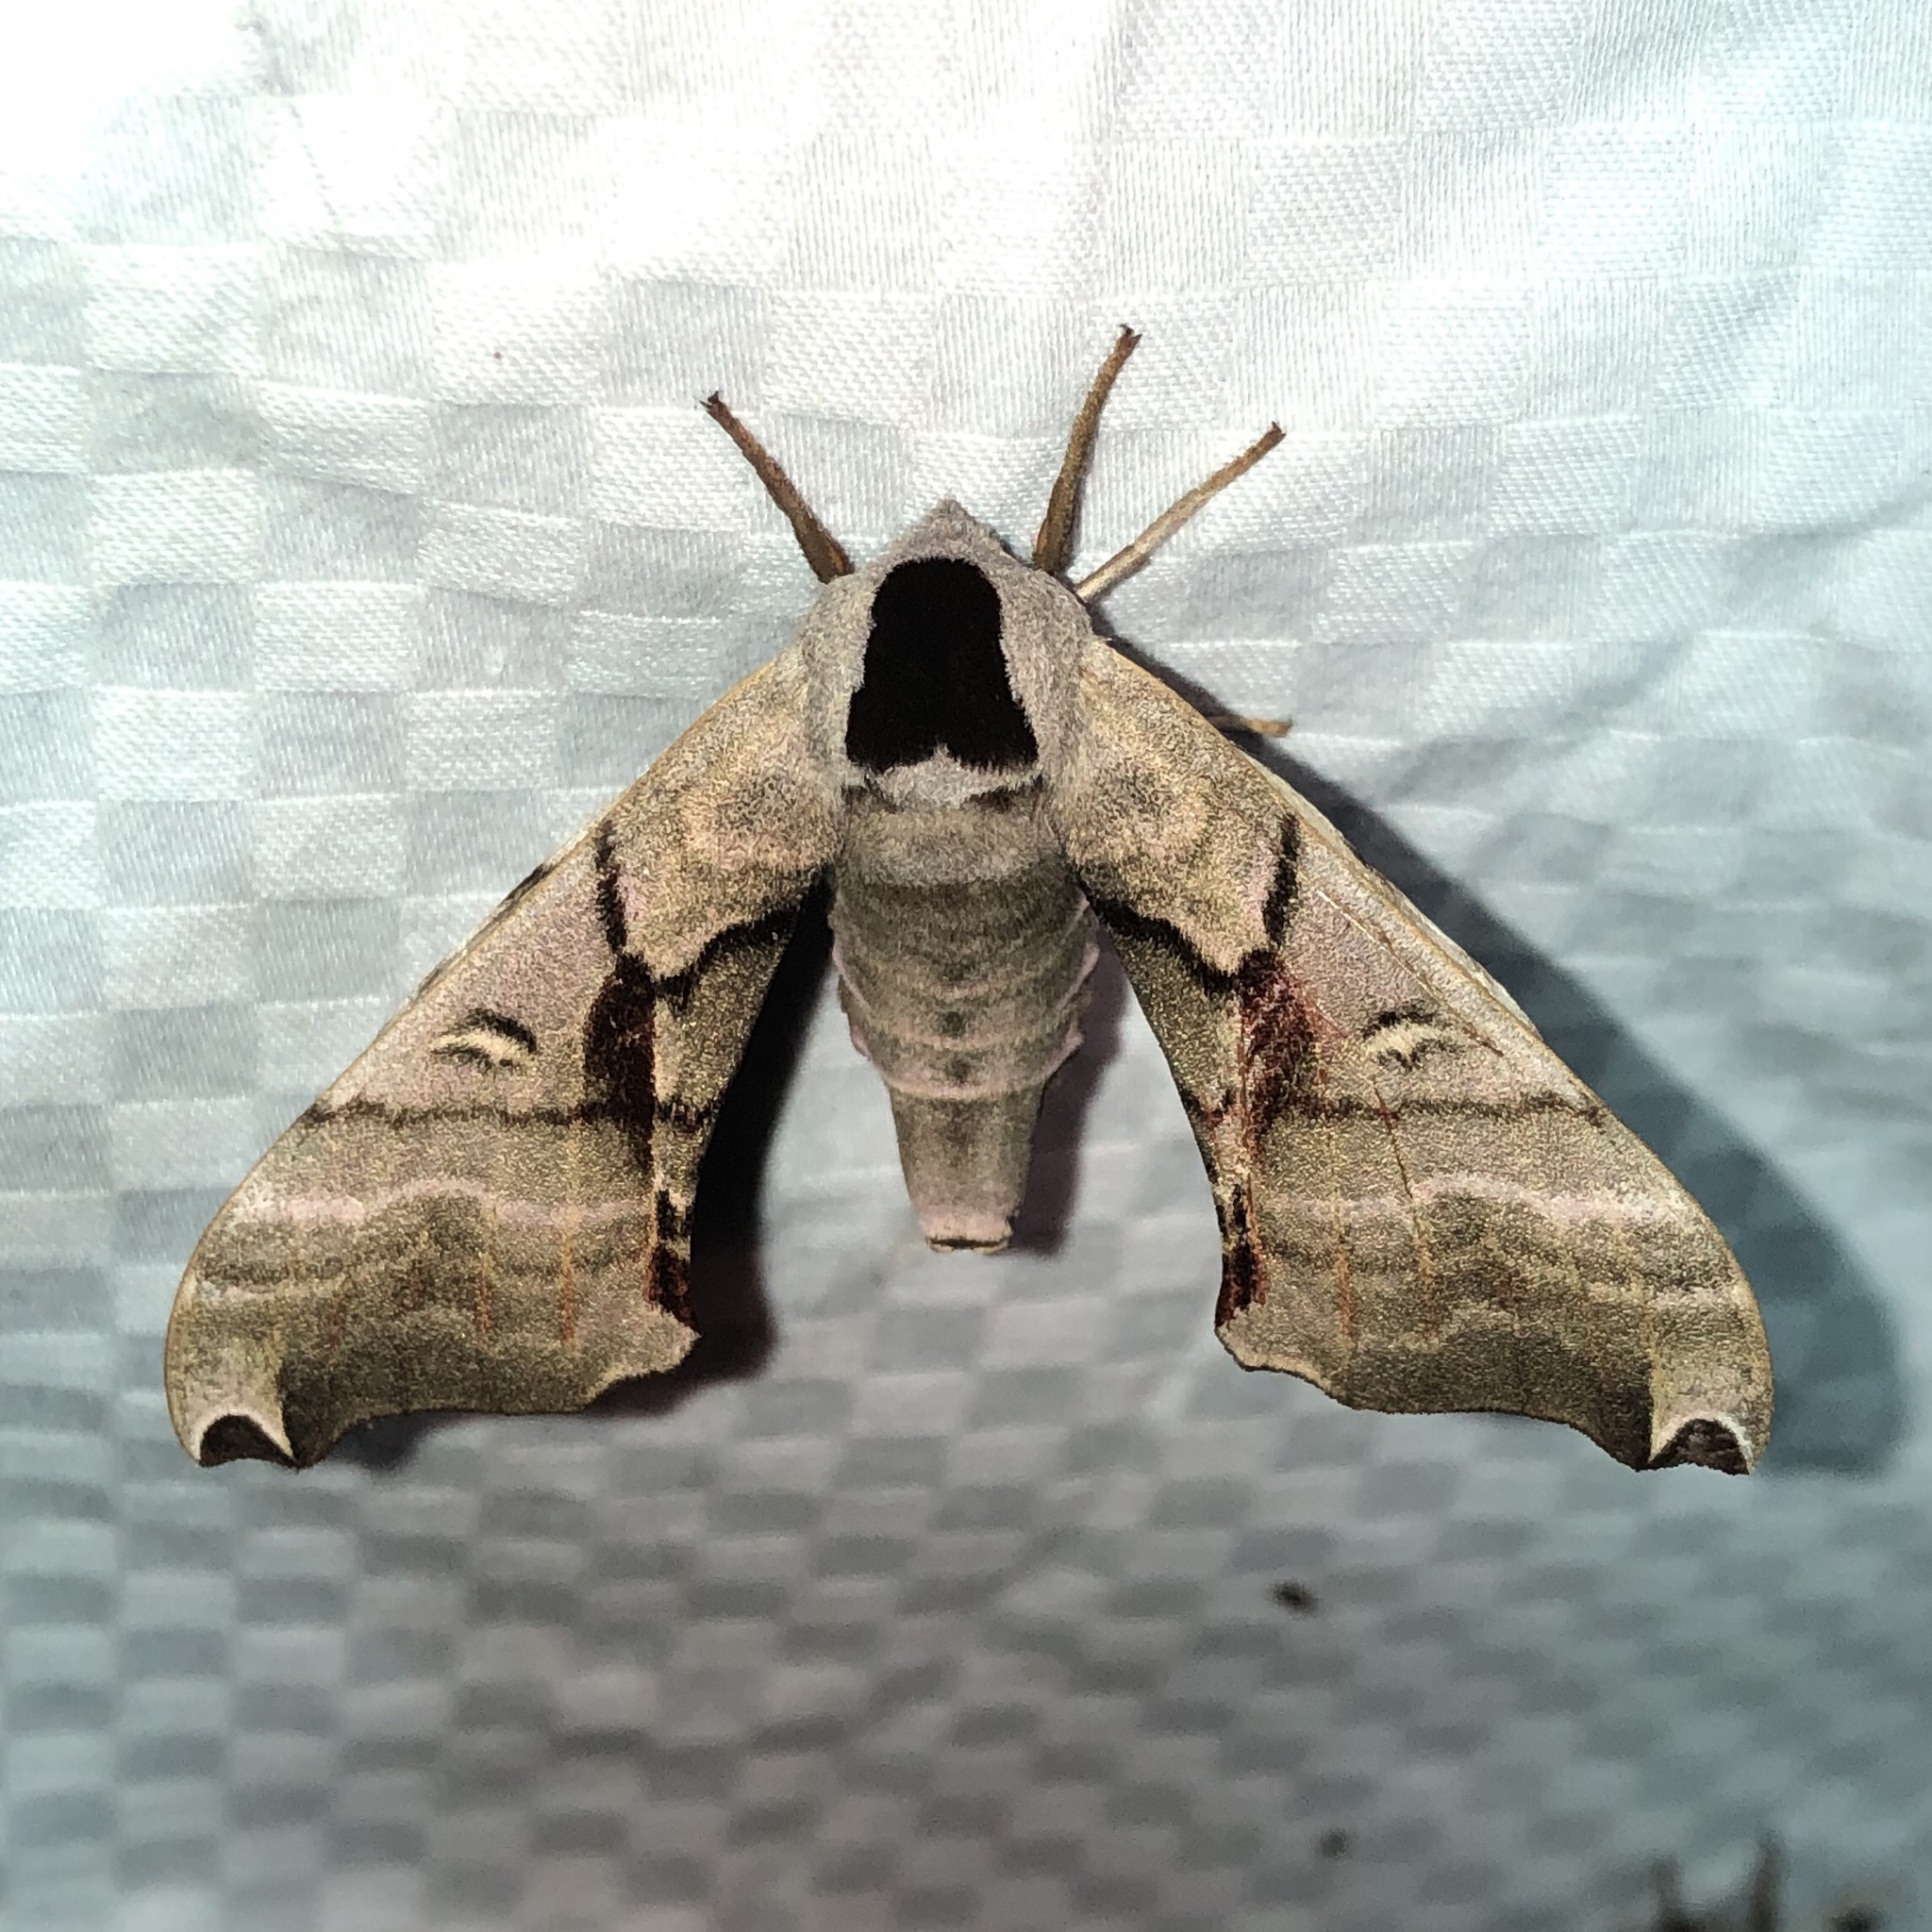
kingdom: Animalia
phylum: Arthropoda
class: Insecta
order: Lepidoptera
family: Sphingidae
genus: Smerinthus
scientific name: Smerinthus jamaicensis
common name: Twin spotted sphinx
